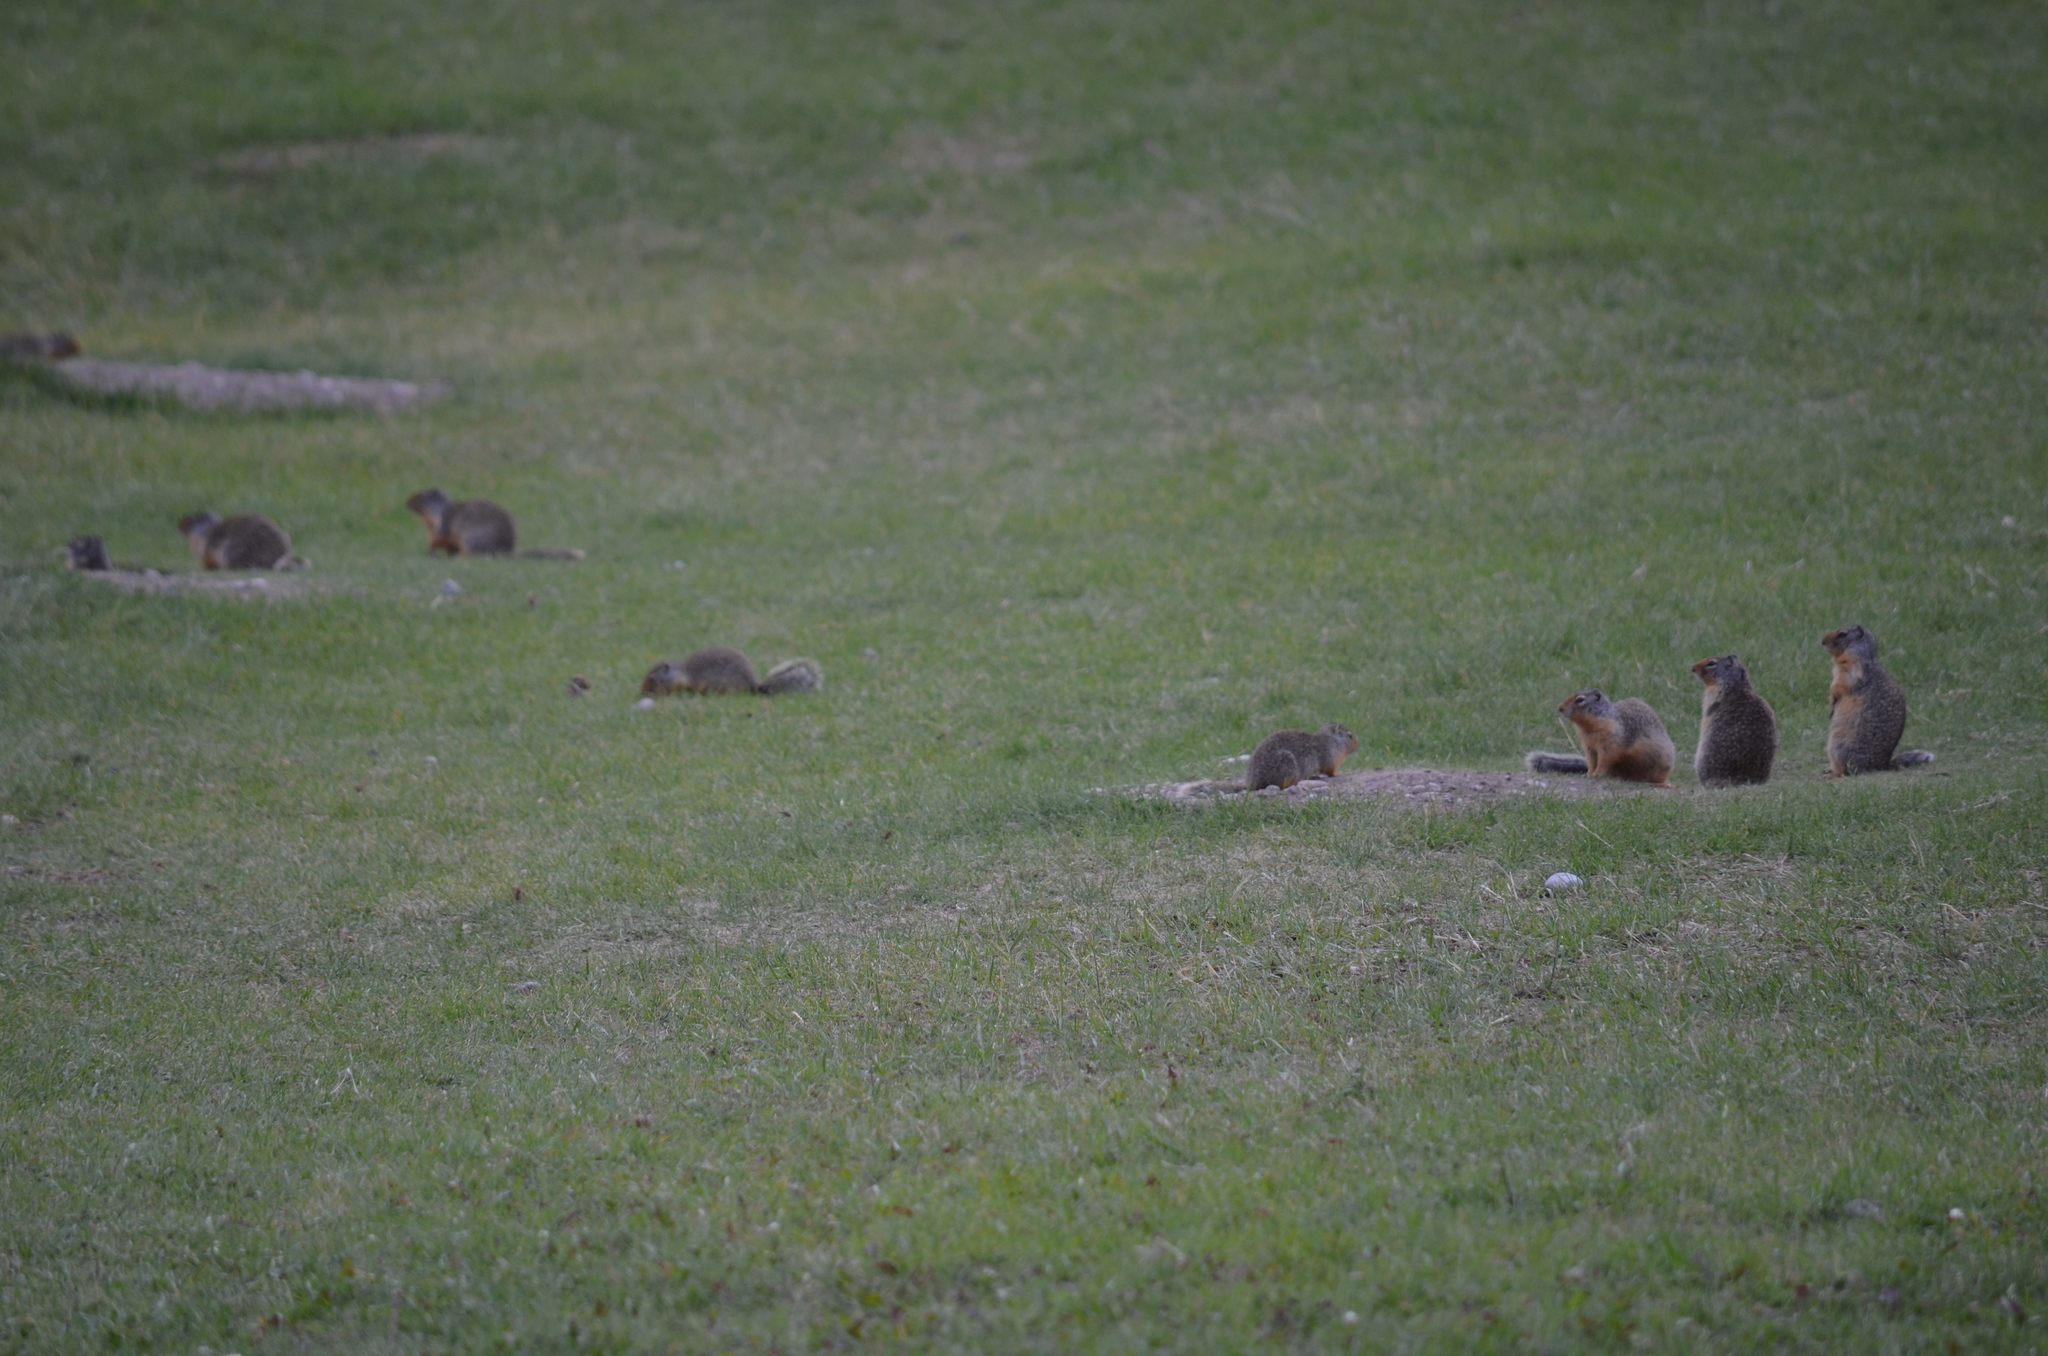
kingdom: Animalia
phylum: Chordata
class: Mammalia
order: Rodentia
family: Sciuridae
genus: Urocitellus
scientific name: Urocitellus columbianus
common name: Columbian ground squirrel
